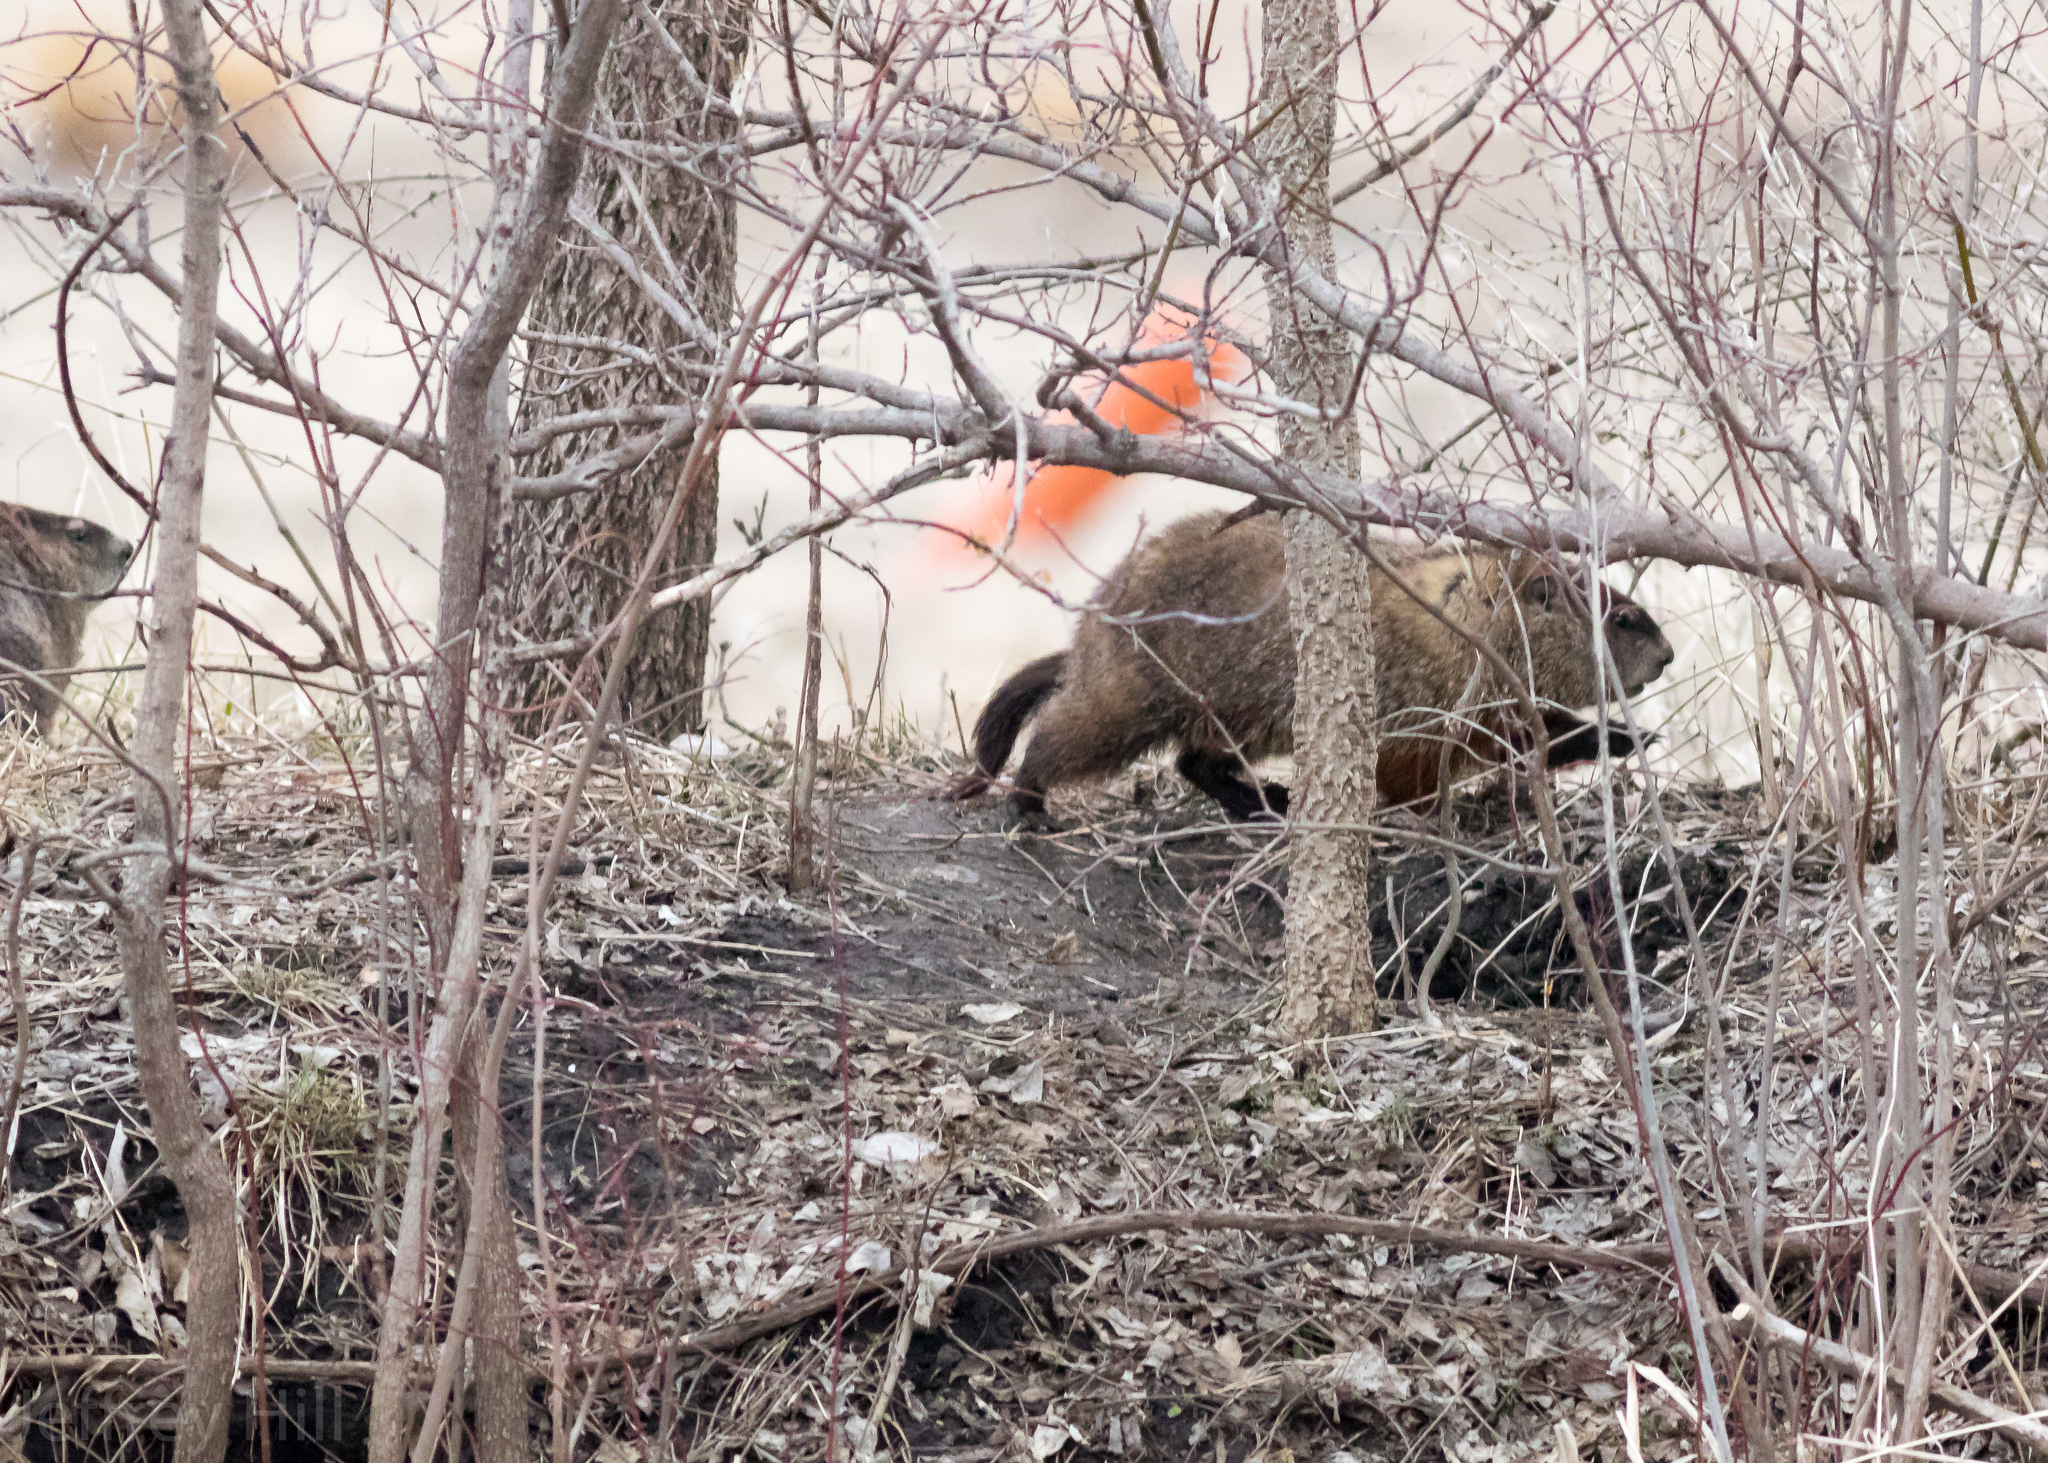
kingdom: Animalia
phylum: Chordata
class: Mammalia
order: Rodentia
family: Sciuridae
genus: Marmota
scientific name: Marmota monax
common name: Groundhog
